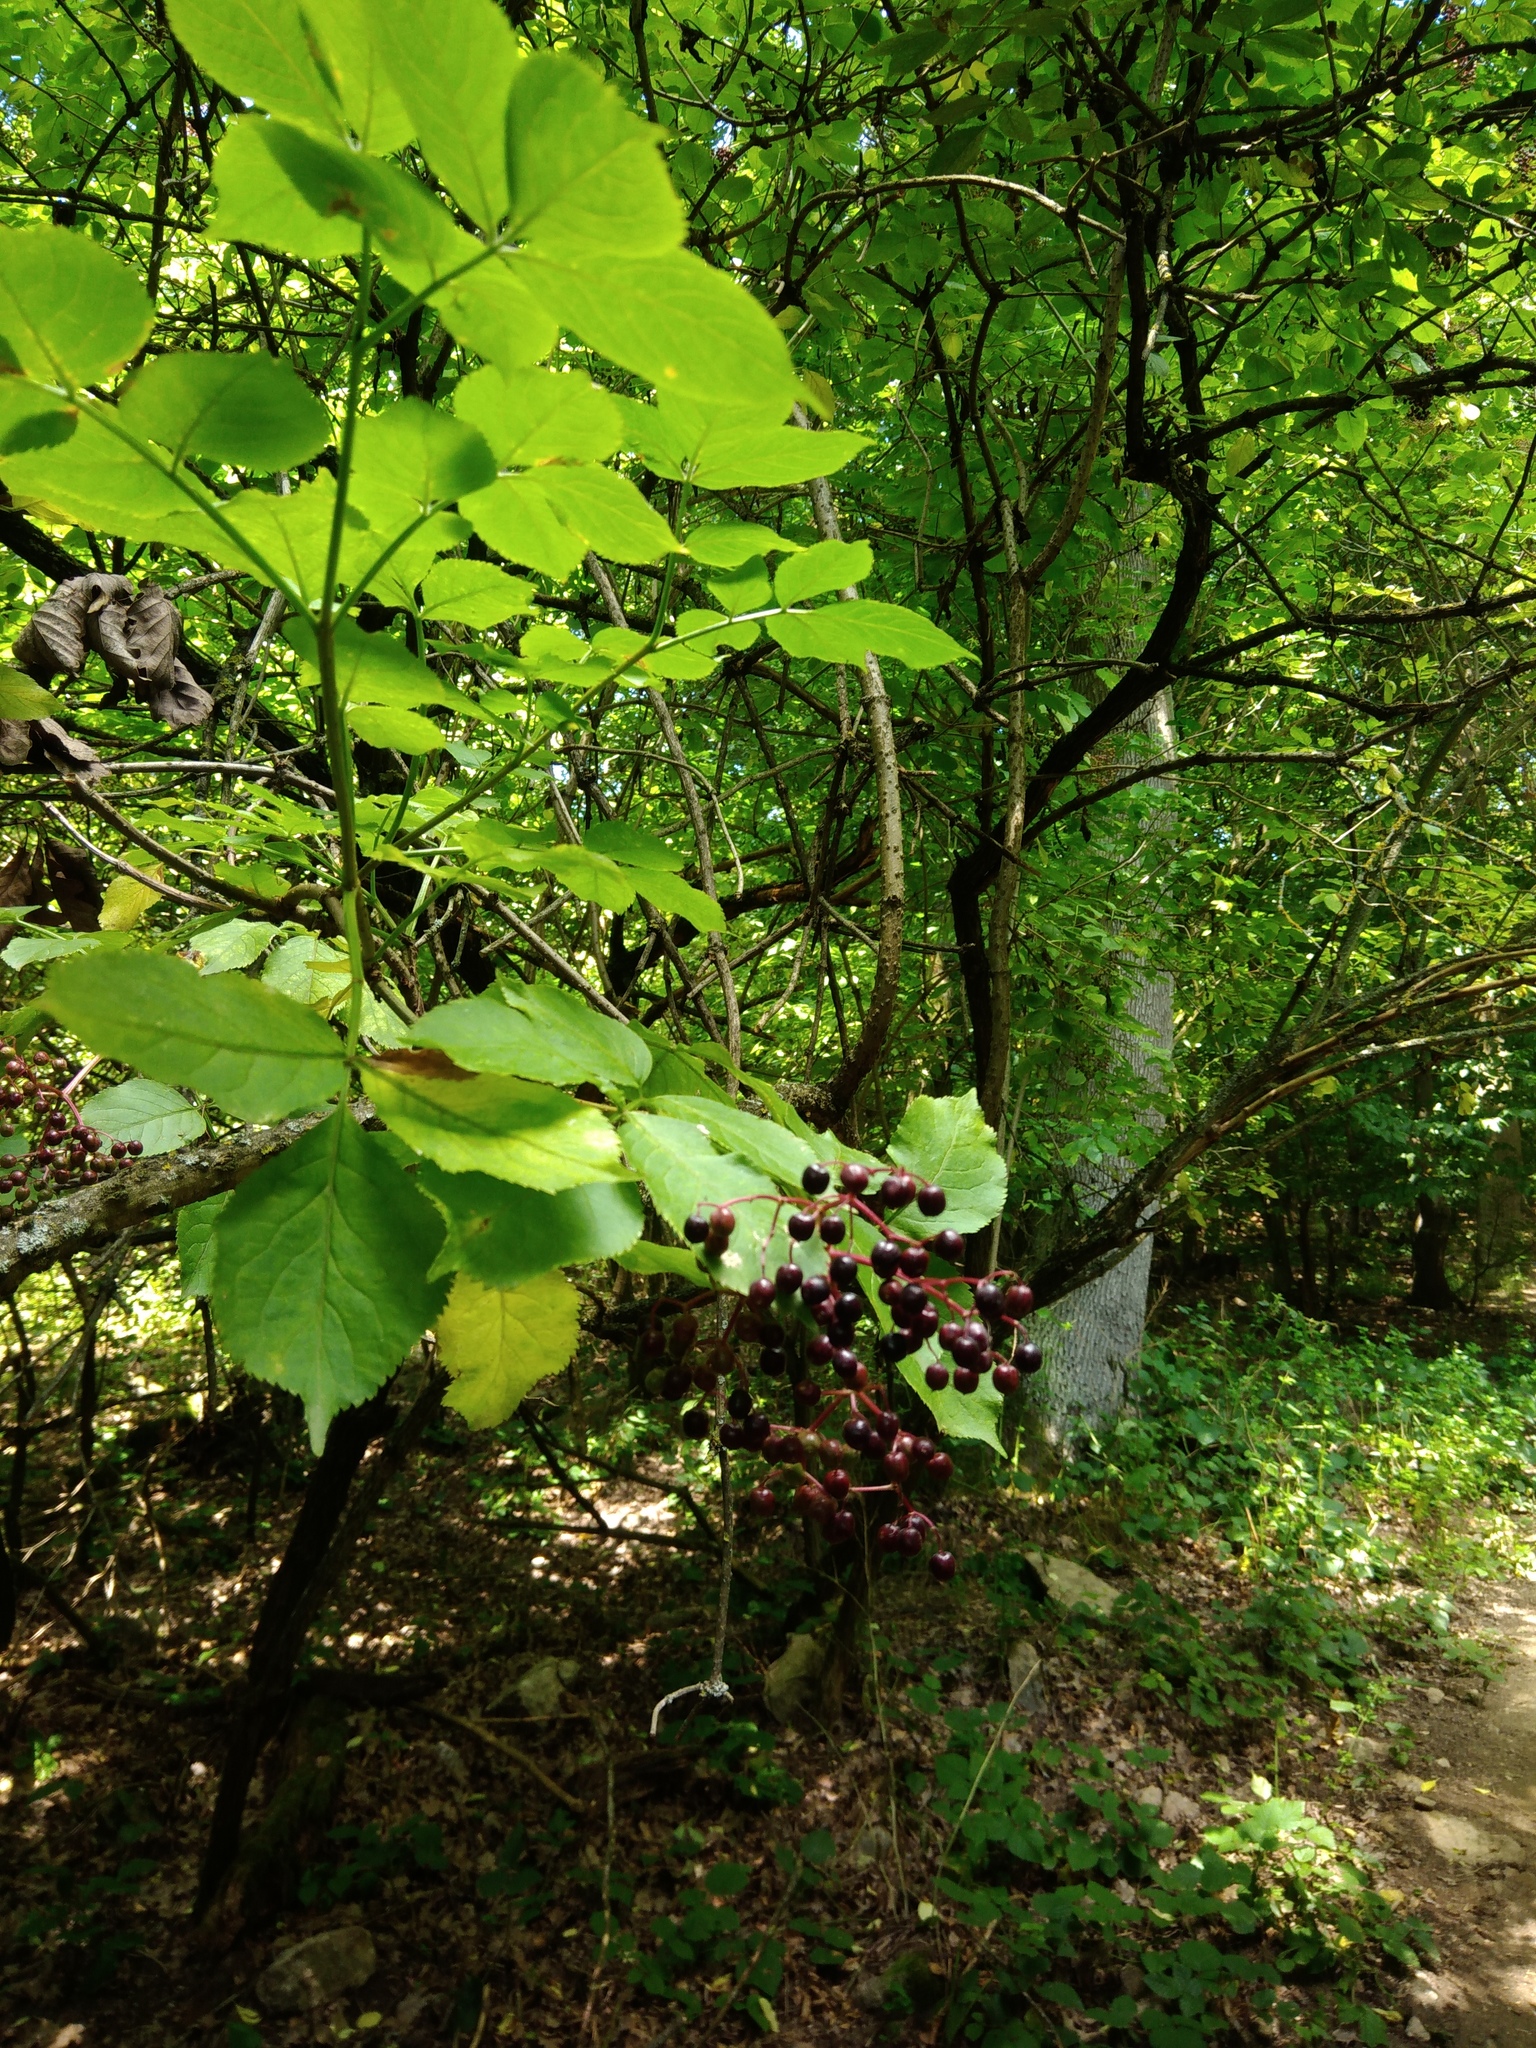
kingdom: Plantae
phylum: Tracheophyta
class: Magnoliopsida
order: Dipsacales
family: Viburnaceae
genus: Sambucus
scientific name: Sambucus nigra
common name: Elder
